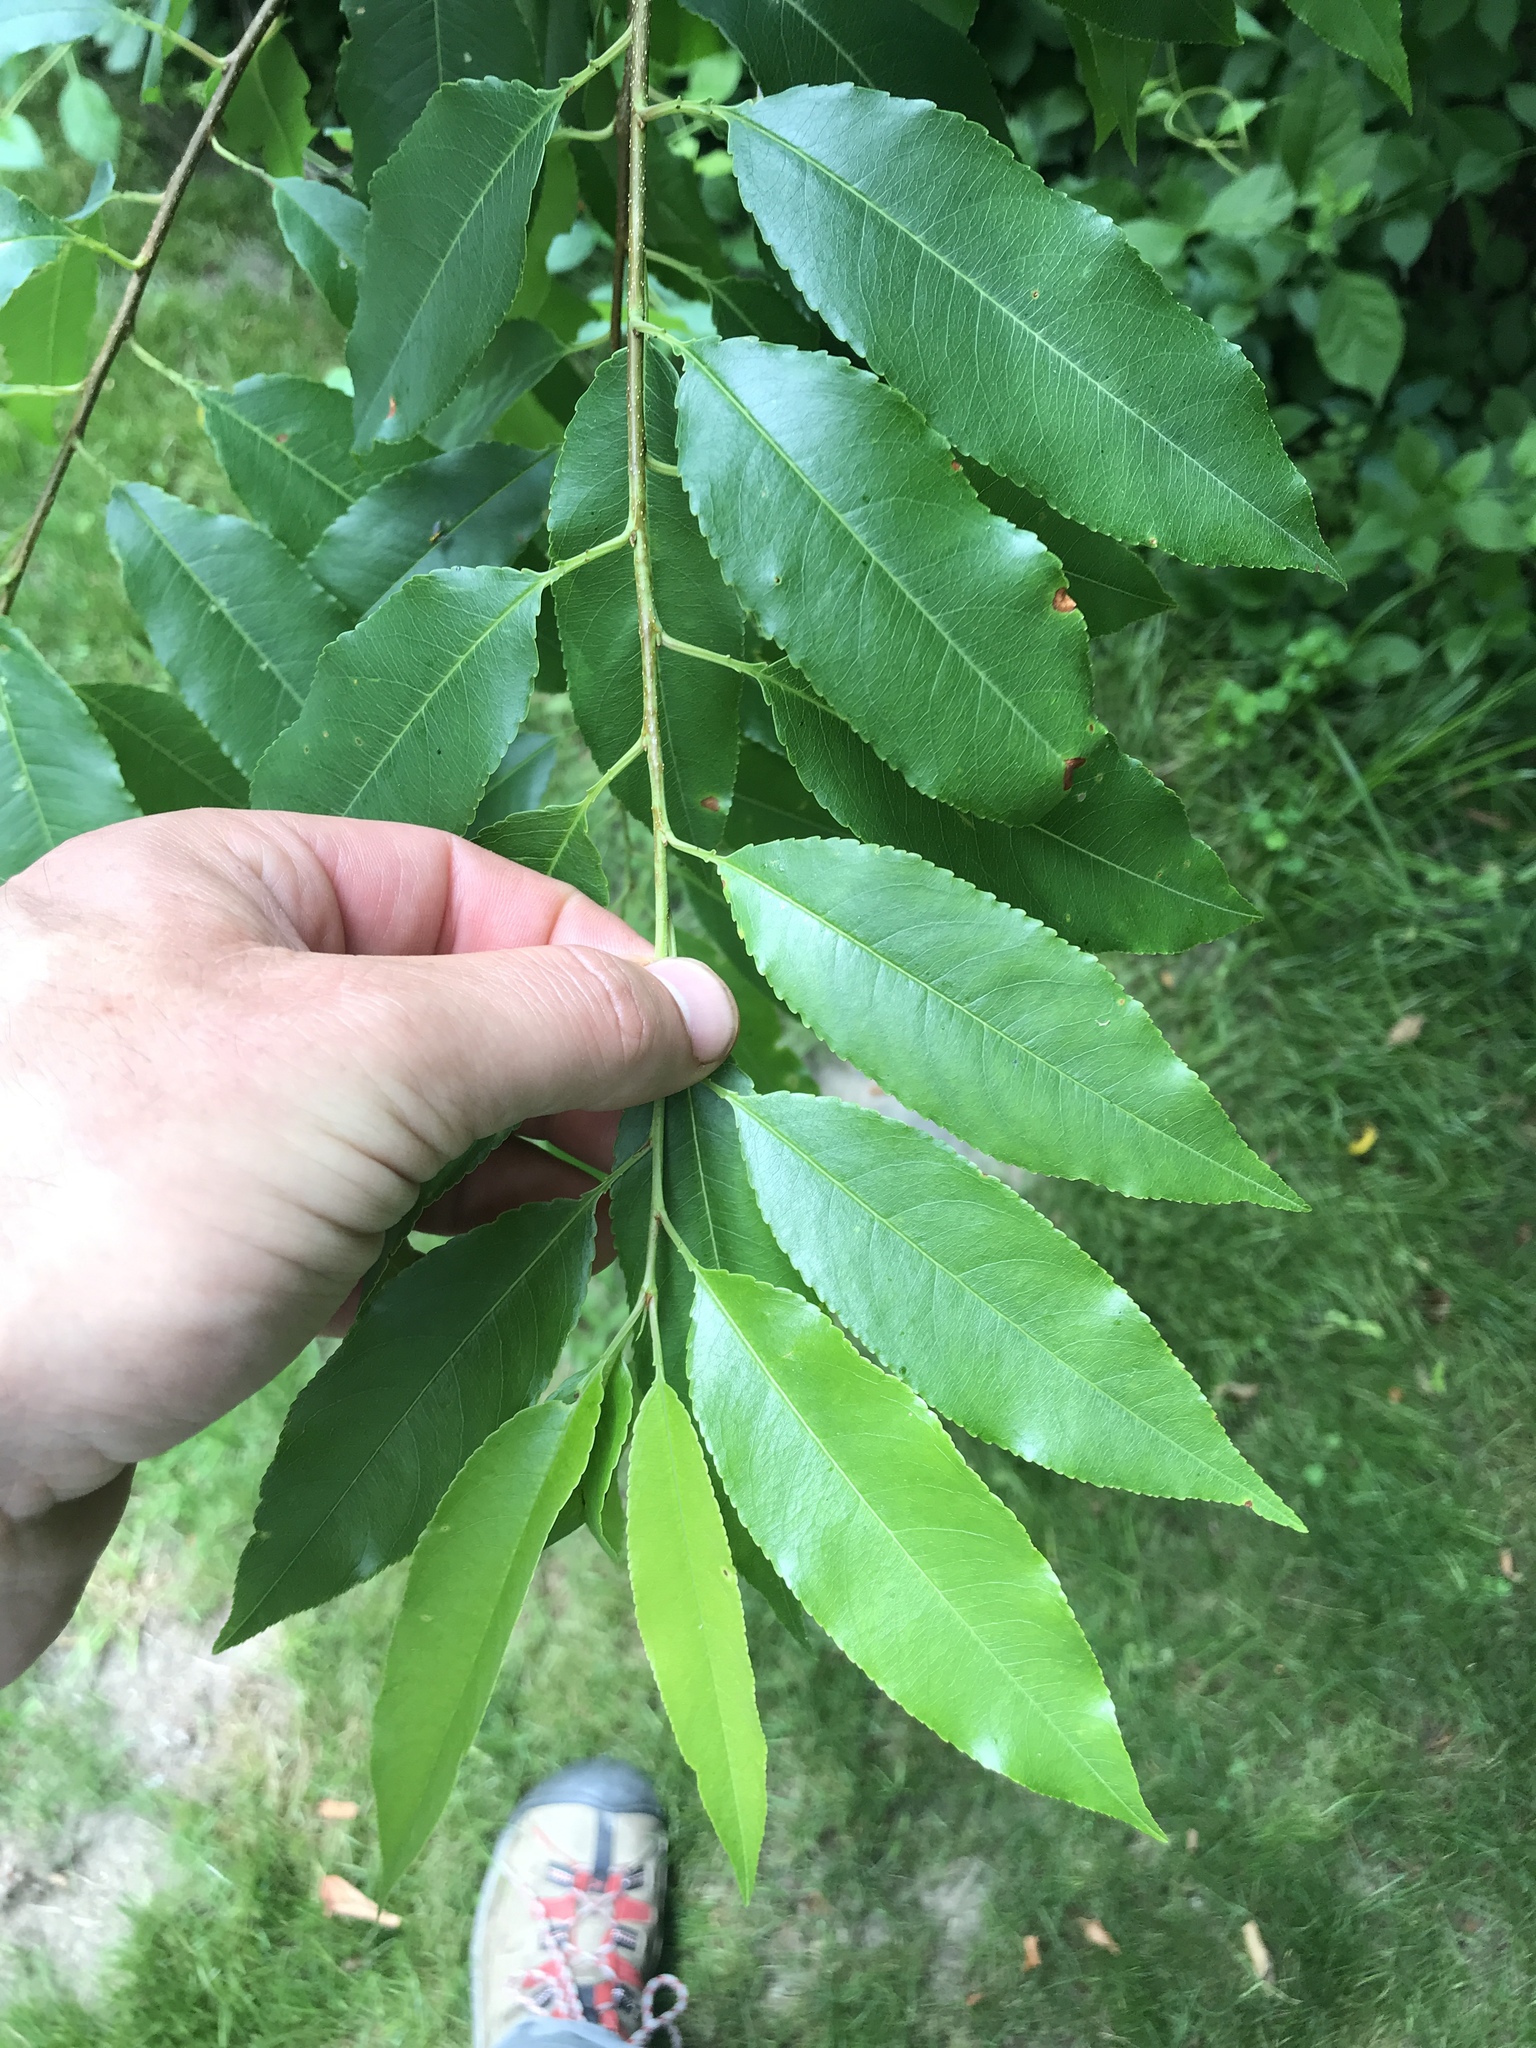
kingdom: Plantae
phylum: Tracheophyta
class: Magnoliopsida
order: Rosales
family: Rosaceae
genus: Prunus
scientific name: Prunus serotina
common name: Black cherry
